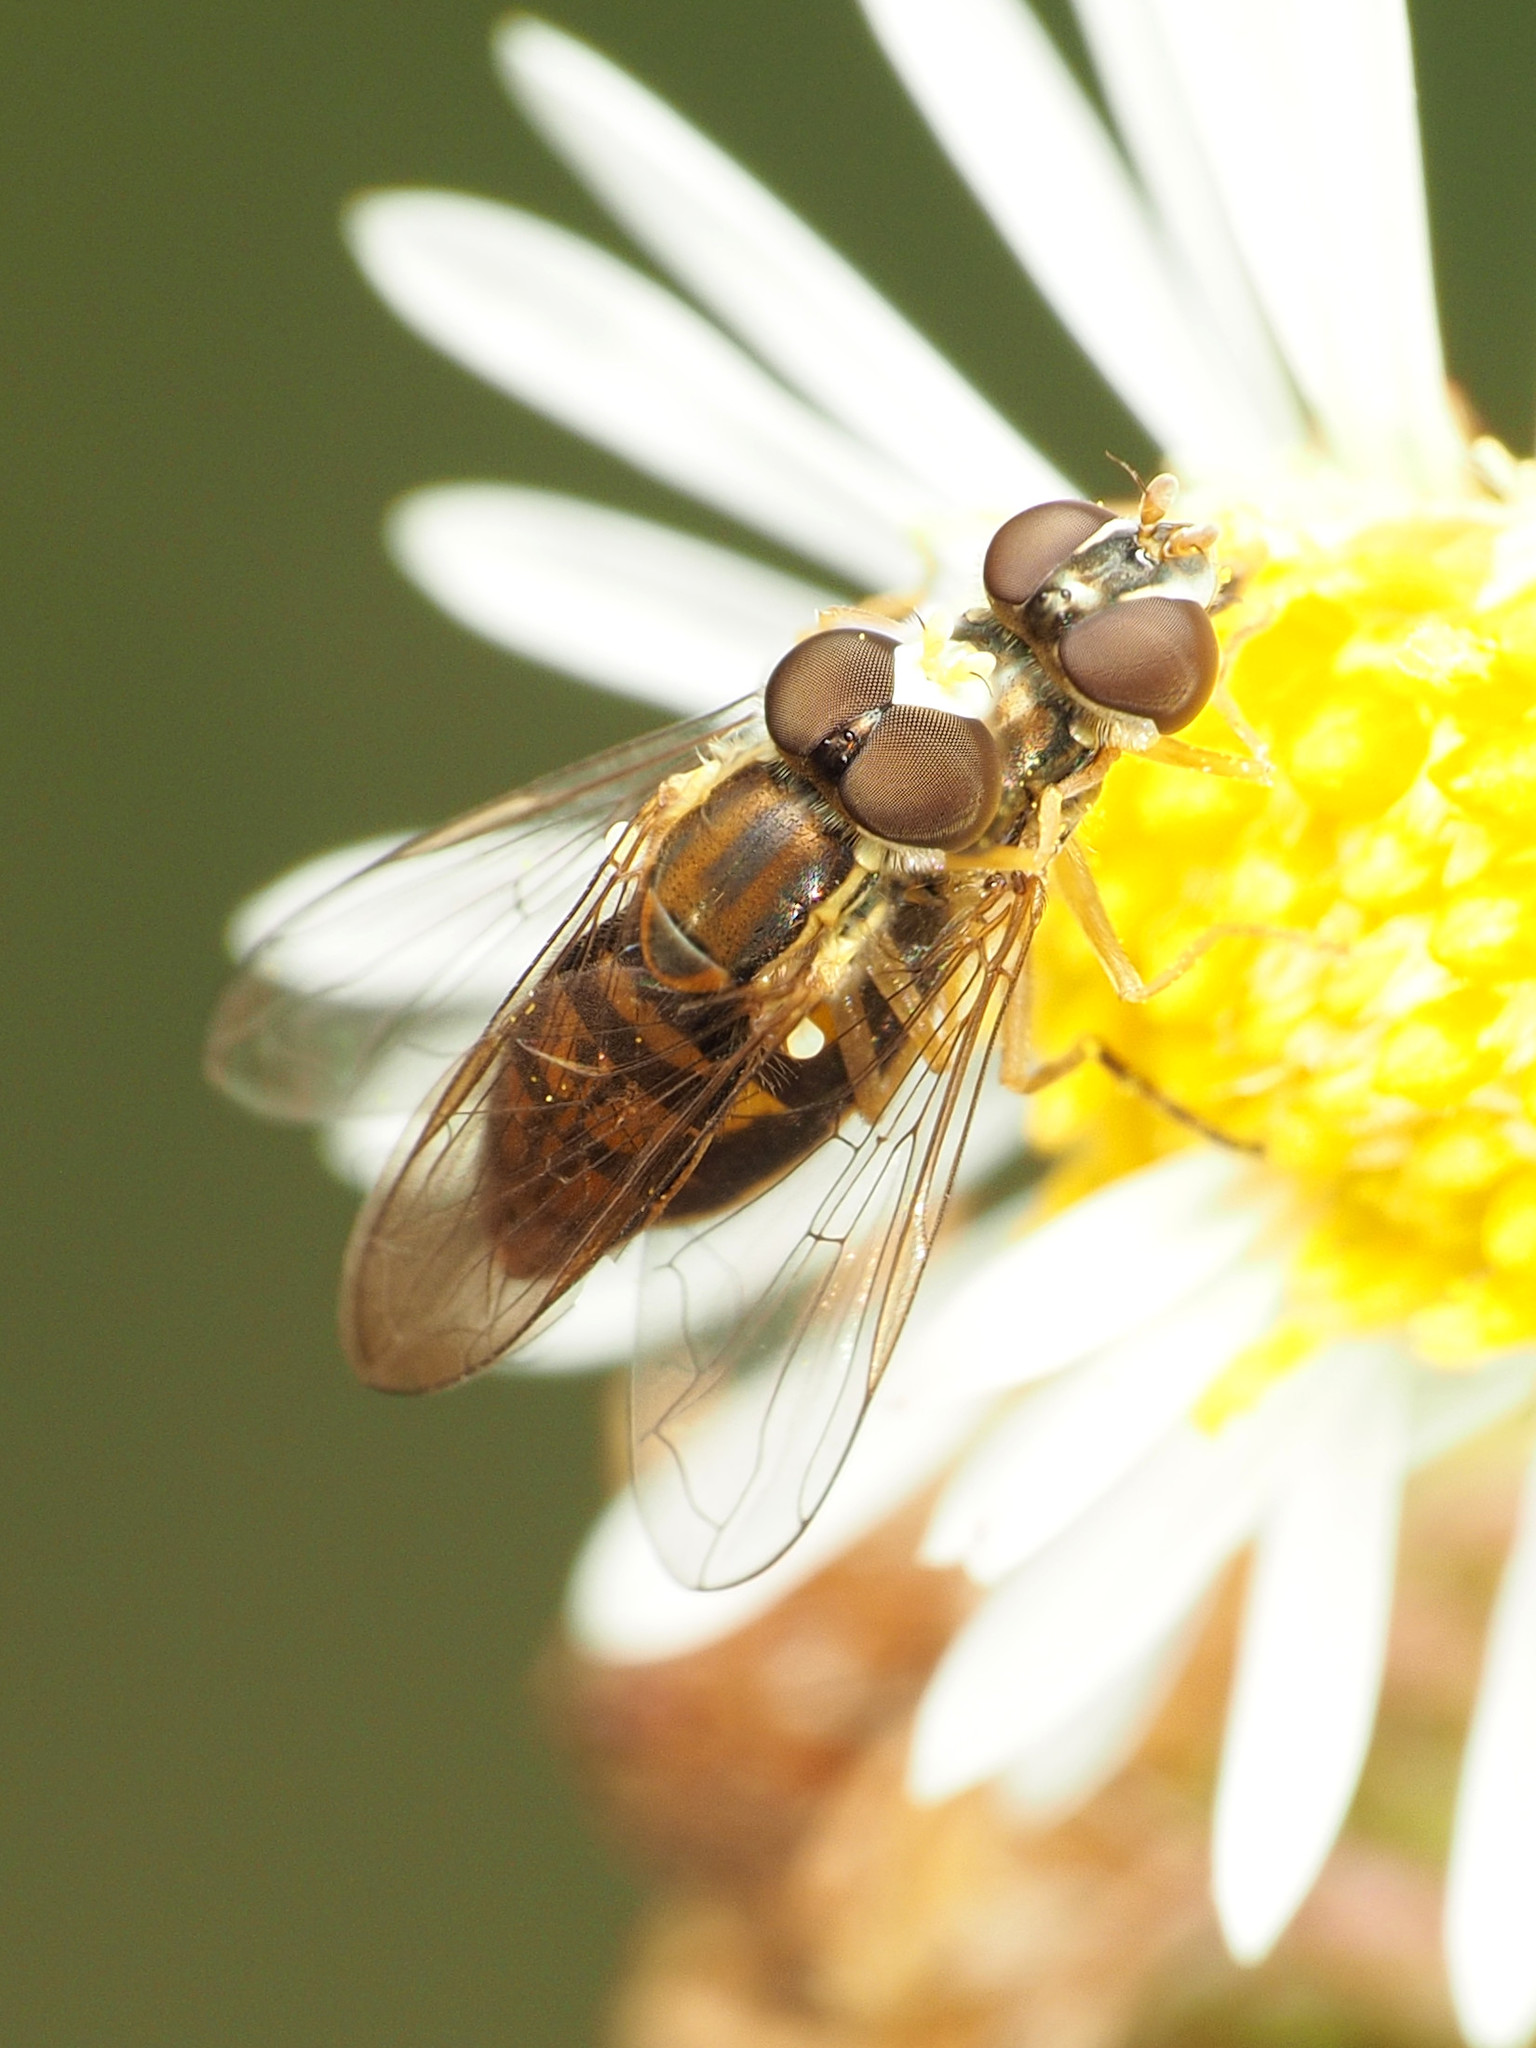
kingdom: Animalia
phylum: Arthropoda
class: Insecta
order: Diptera
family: Syrphidae
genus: Toxomerus
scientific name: Toxomerus marginatus
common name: Syrphid fly
